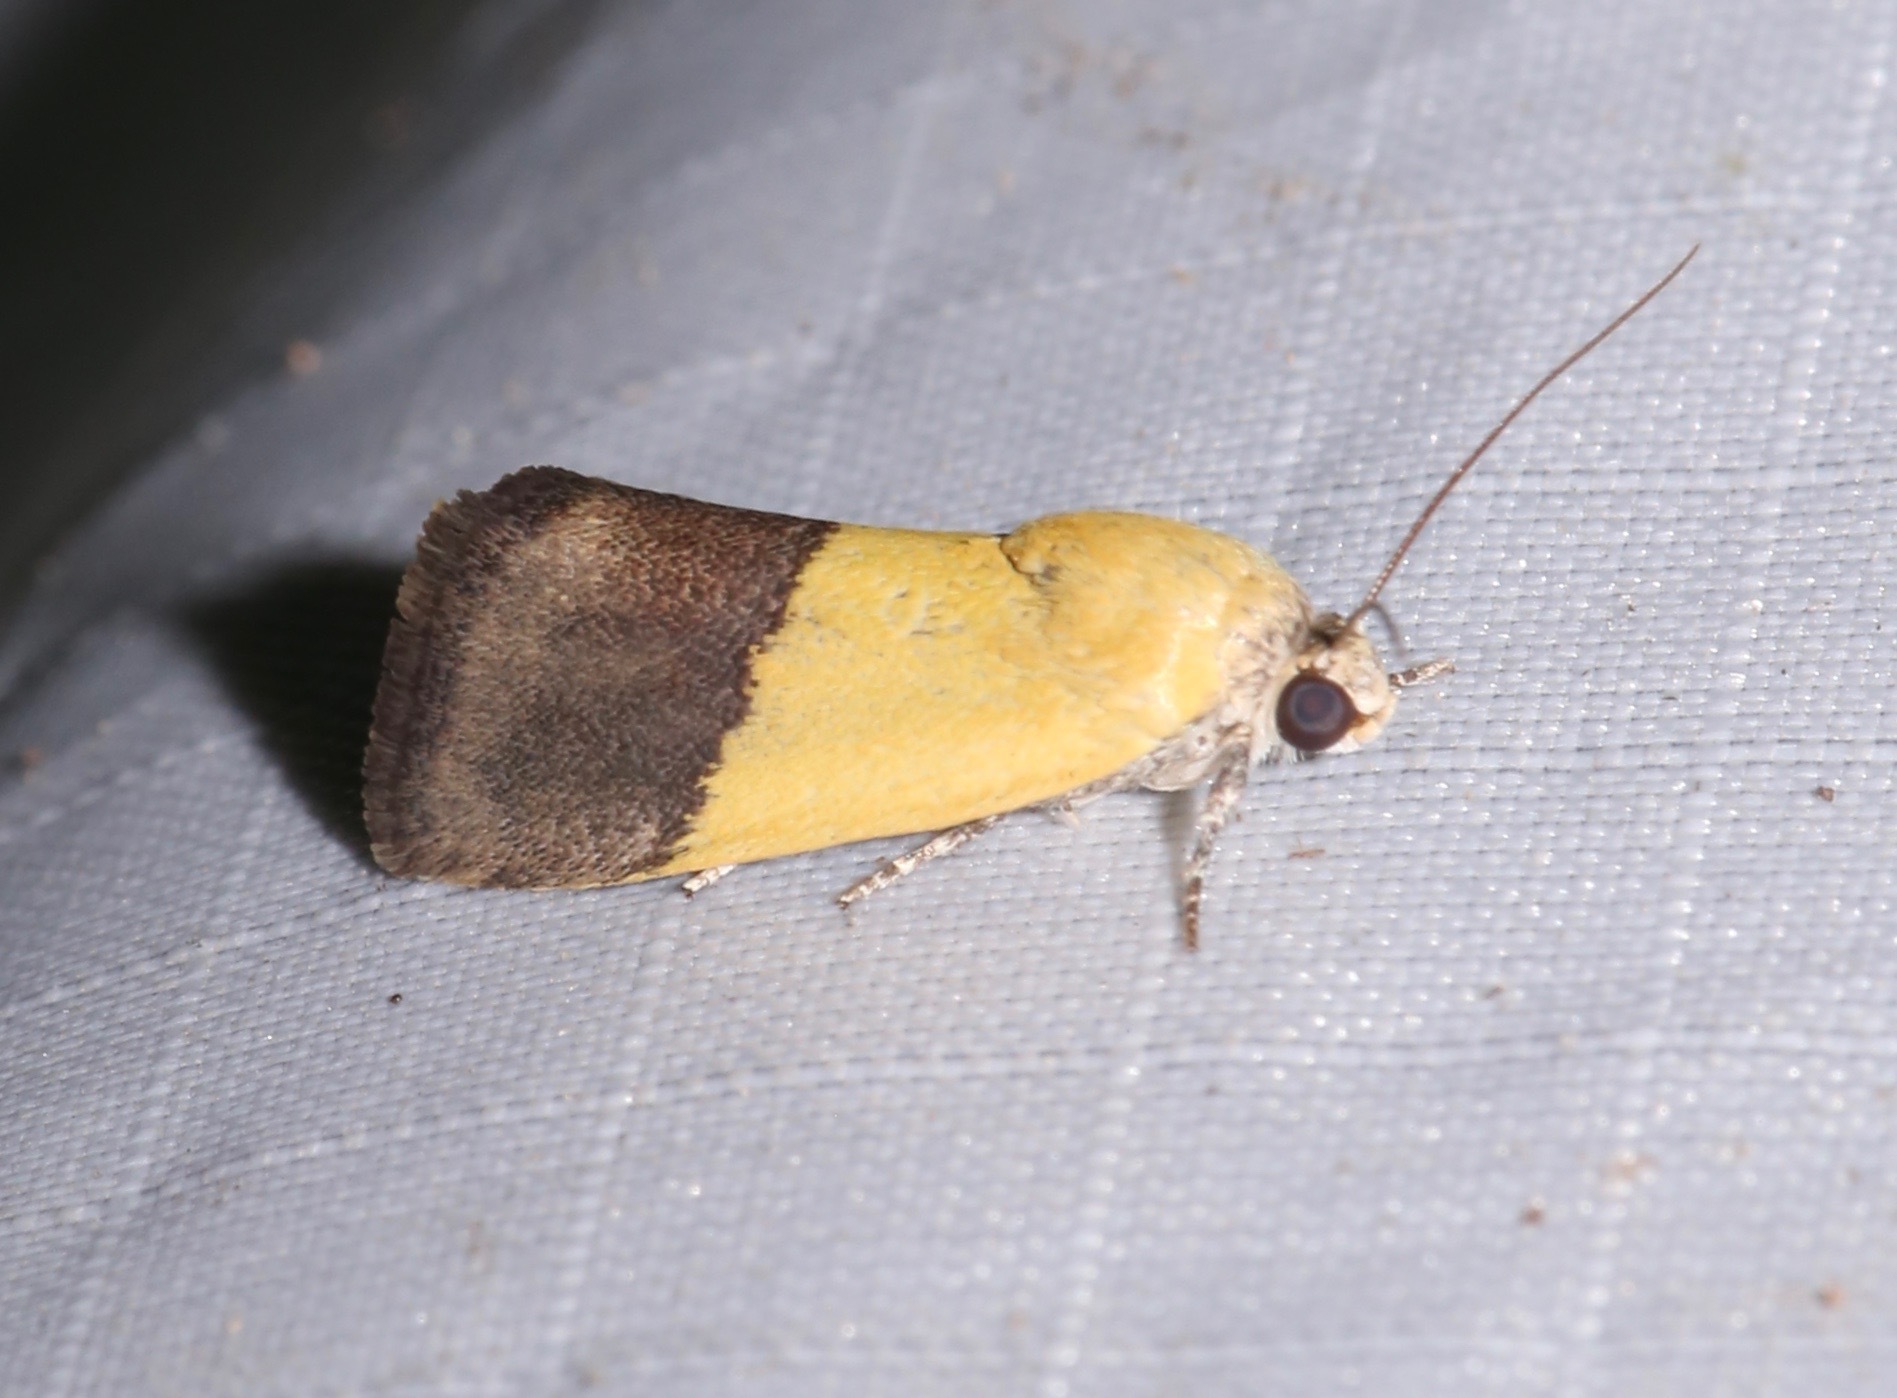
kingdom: Animalia
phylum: Arthropoda
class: Insecta
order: Lepidoptera
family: Noctuidae
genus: Acontia
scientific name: Acontia semiflava
